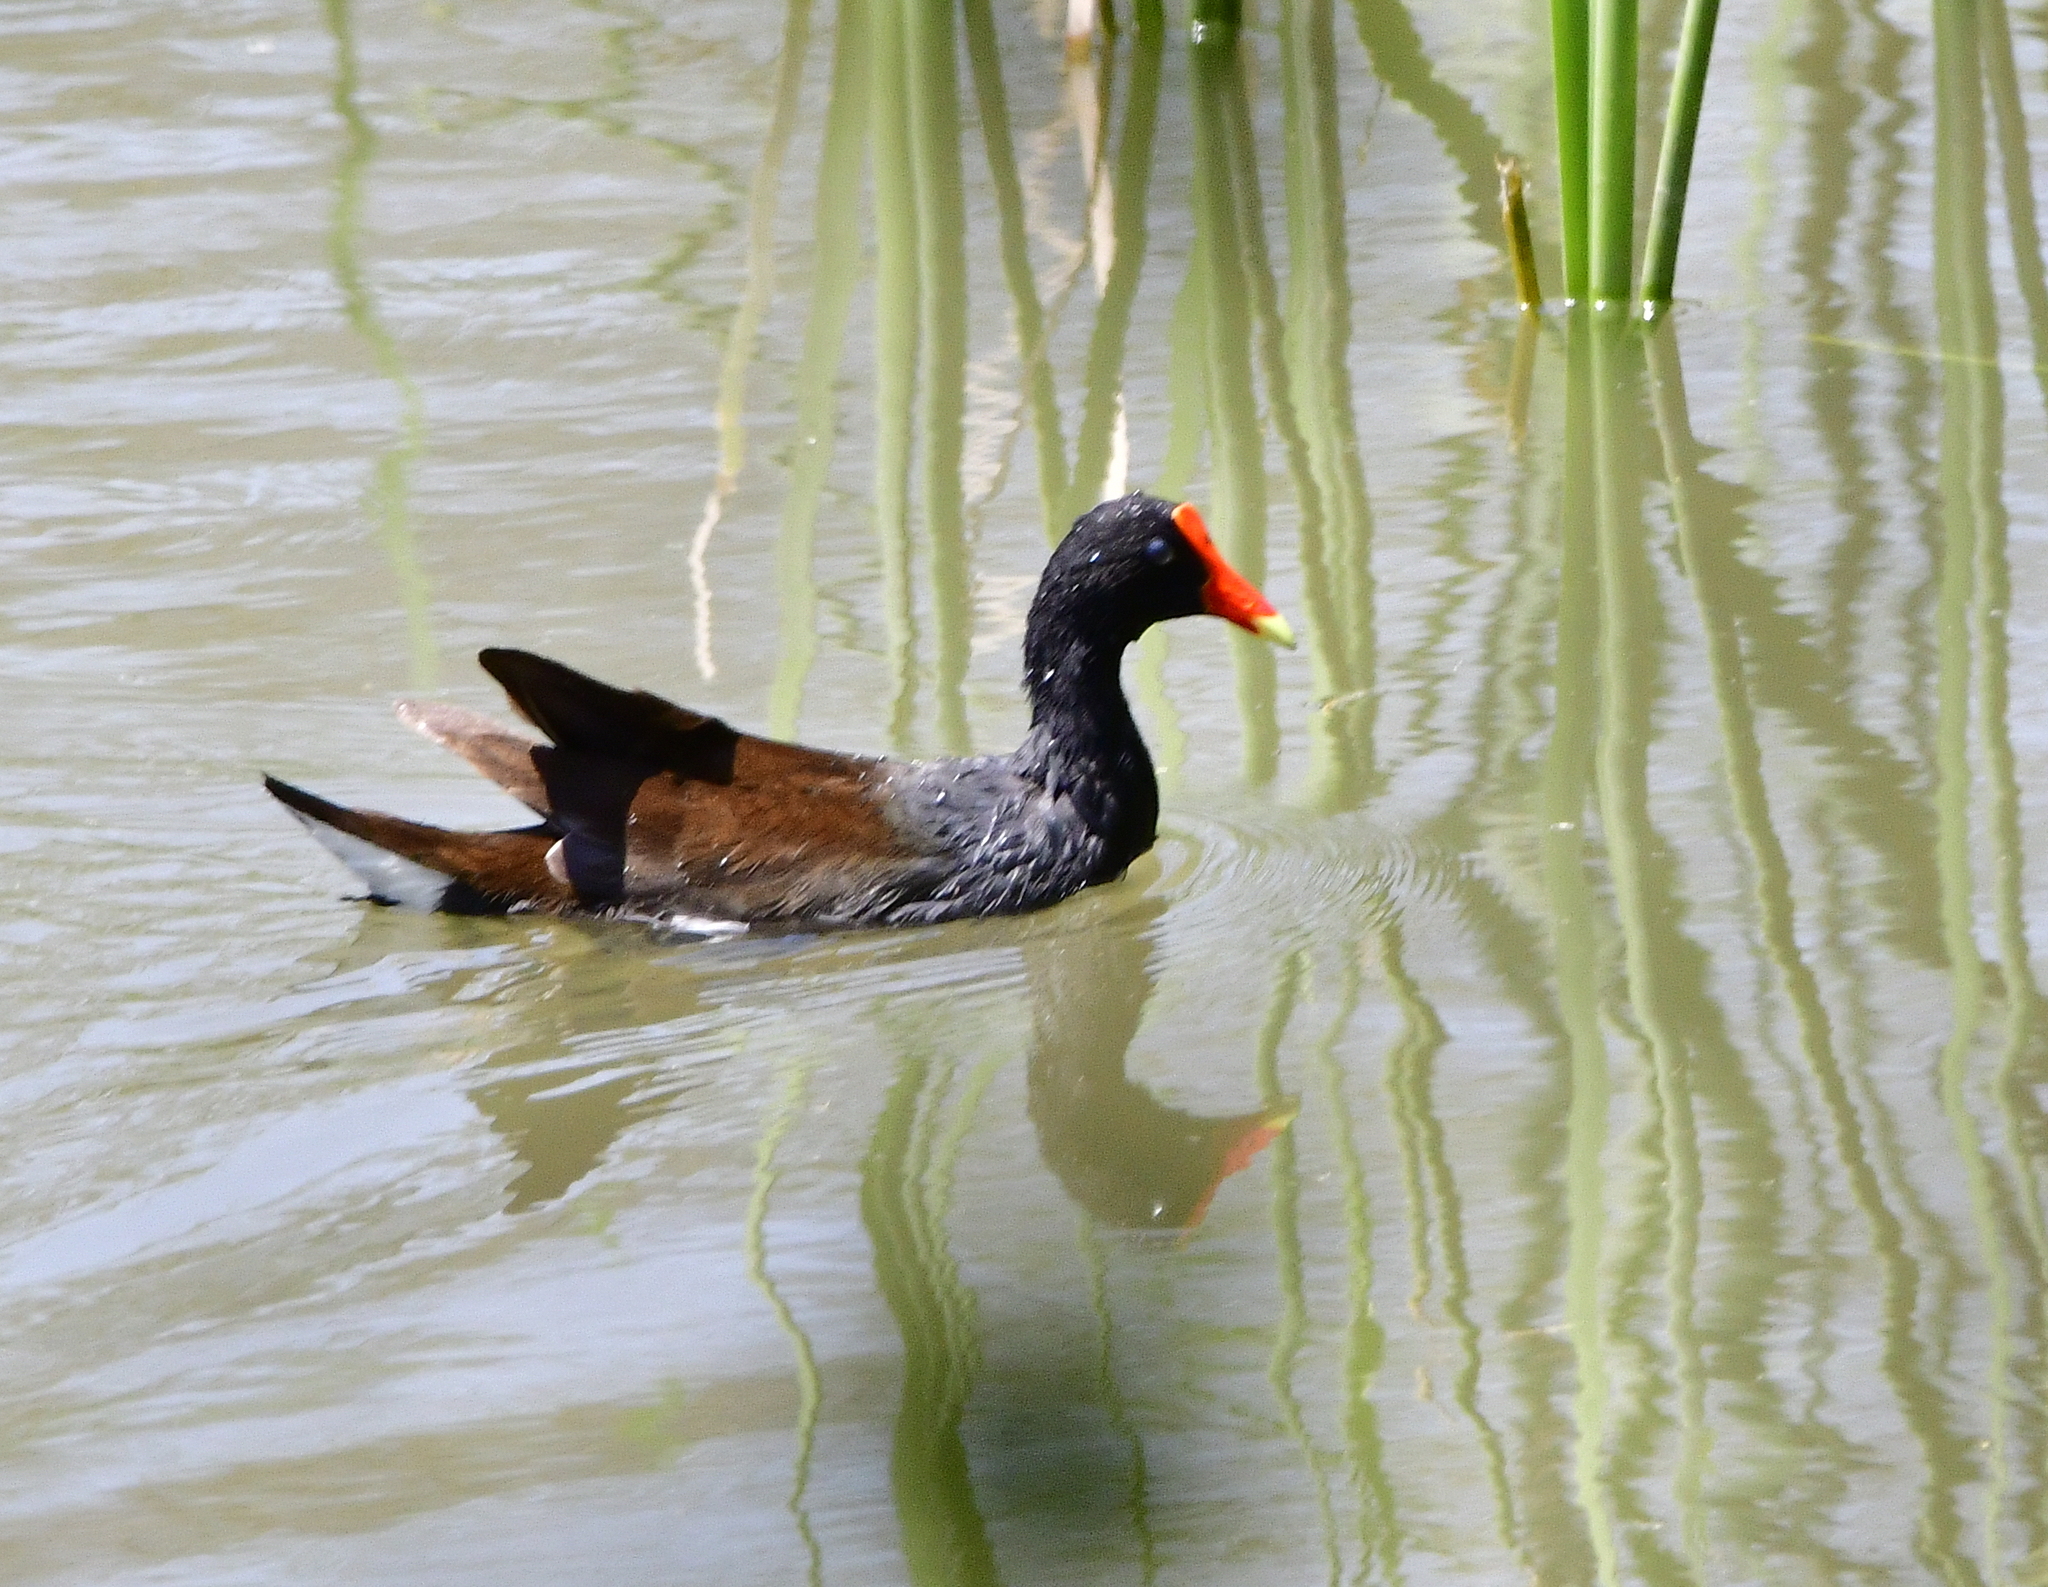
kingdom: Animalia
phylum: Chordata
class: Aves
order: Gruiformes
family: Rallidae
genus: Gallinula
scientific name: Gallinula chloropus
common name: Common moorhen
